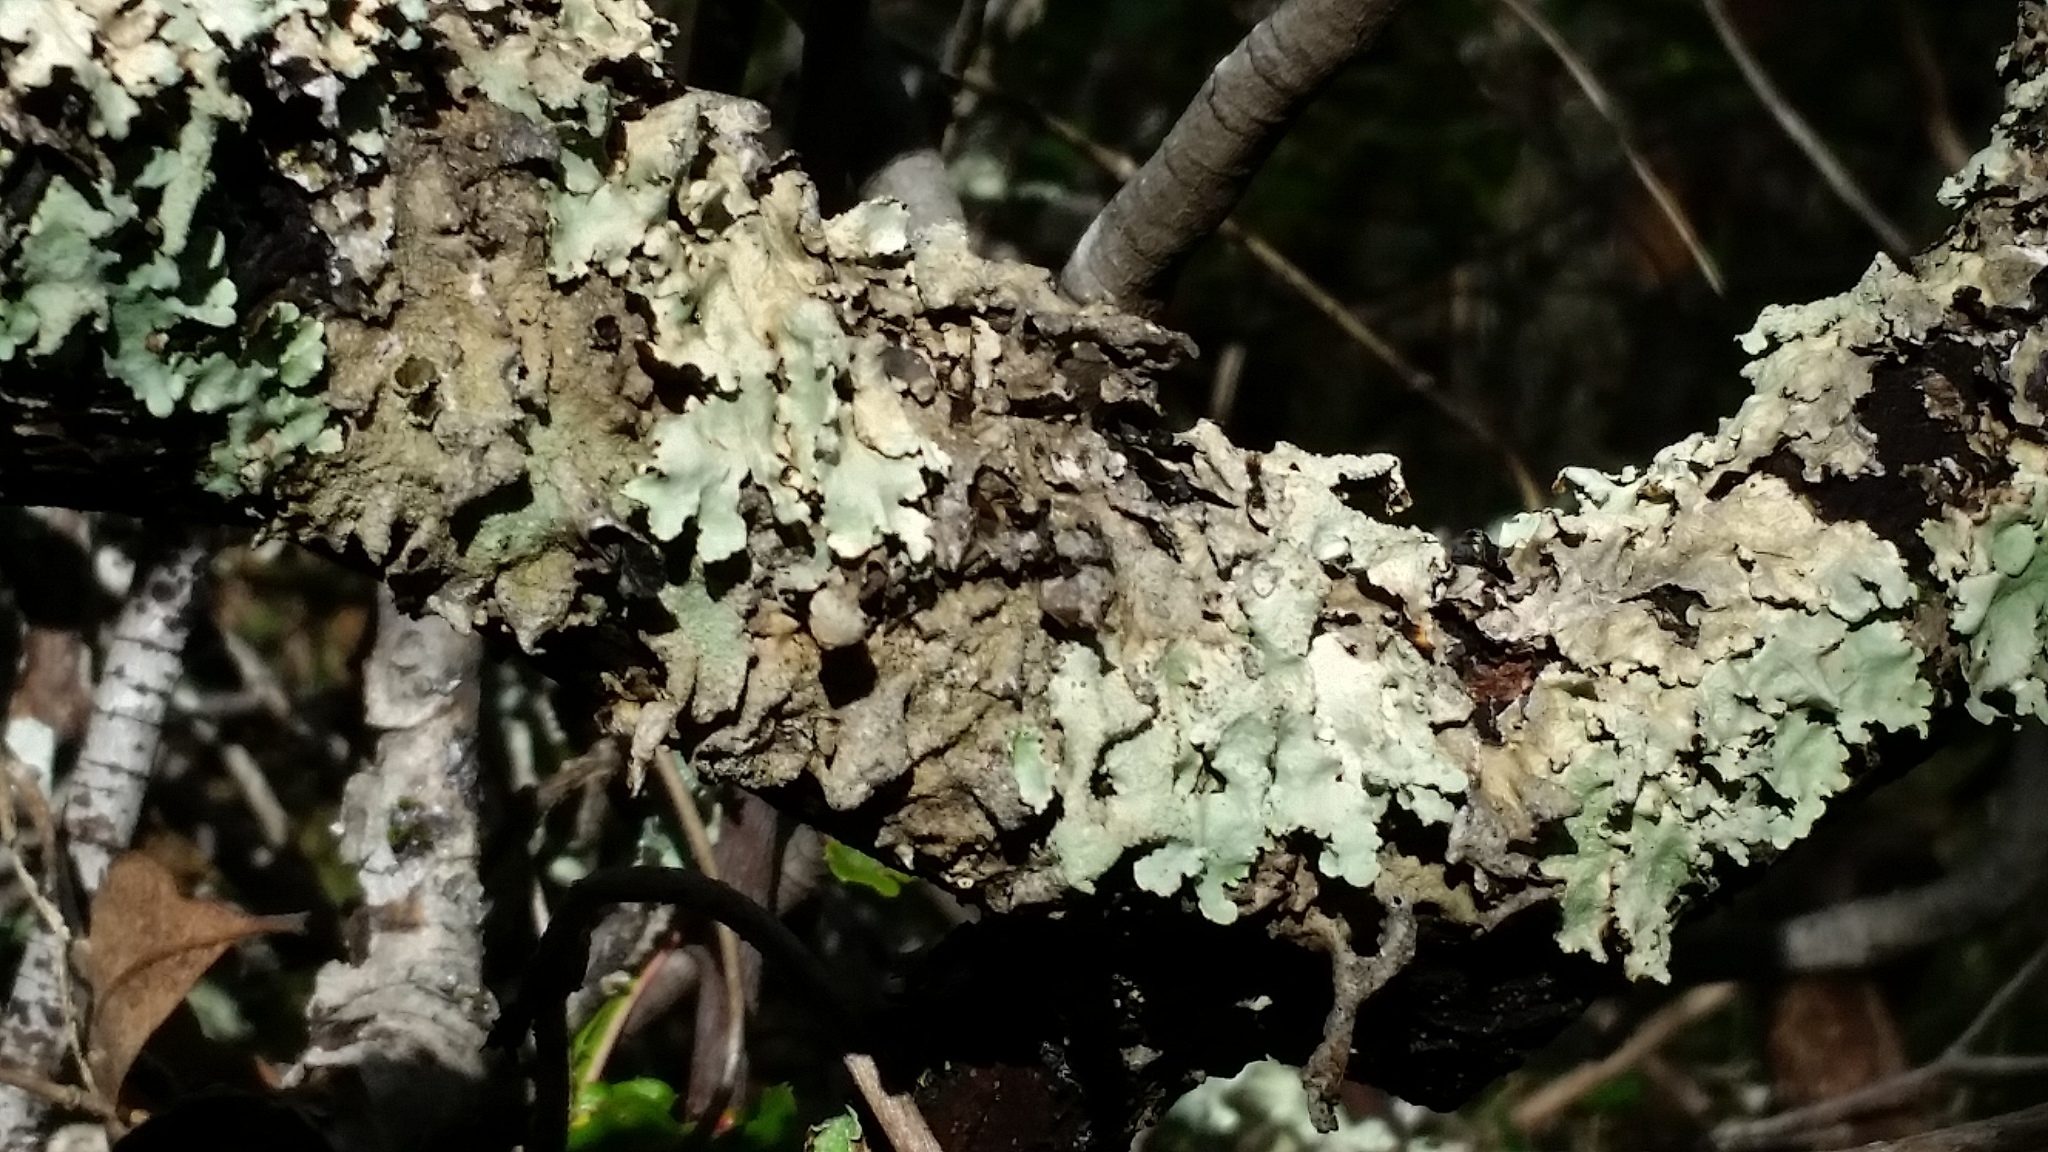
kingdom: Fungi
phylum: Ascomycota
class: Lecanoromycetes
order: Lecanorales
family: Parmeliaceae
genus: Flavoparmelia
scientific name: Flavoparmelia caperata
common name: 40-mile per hour lichen
